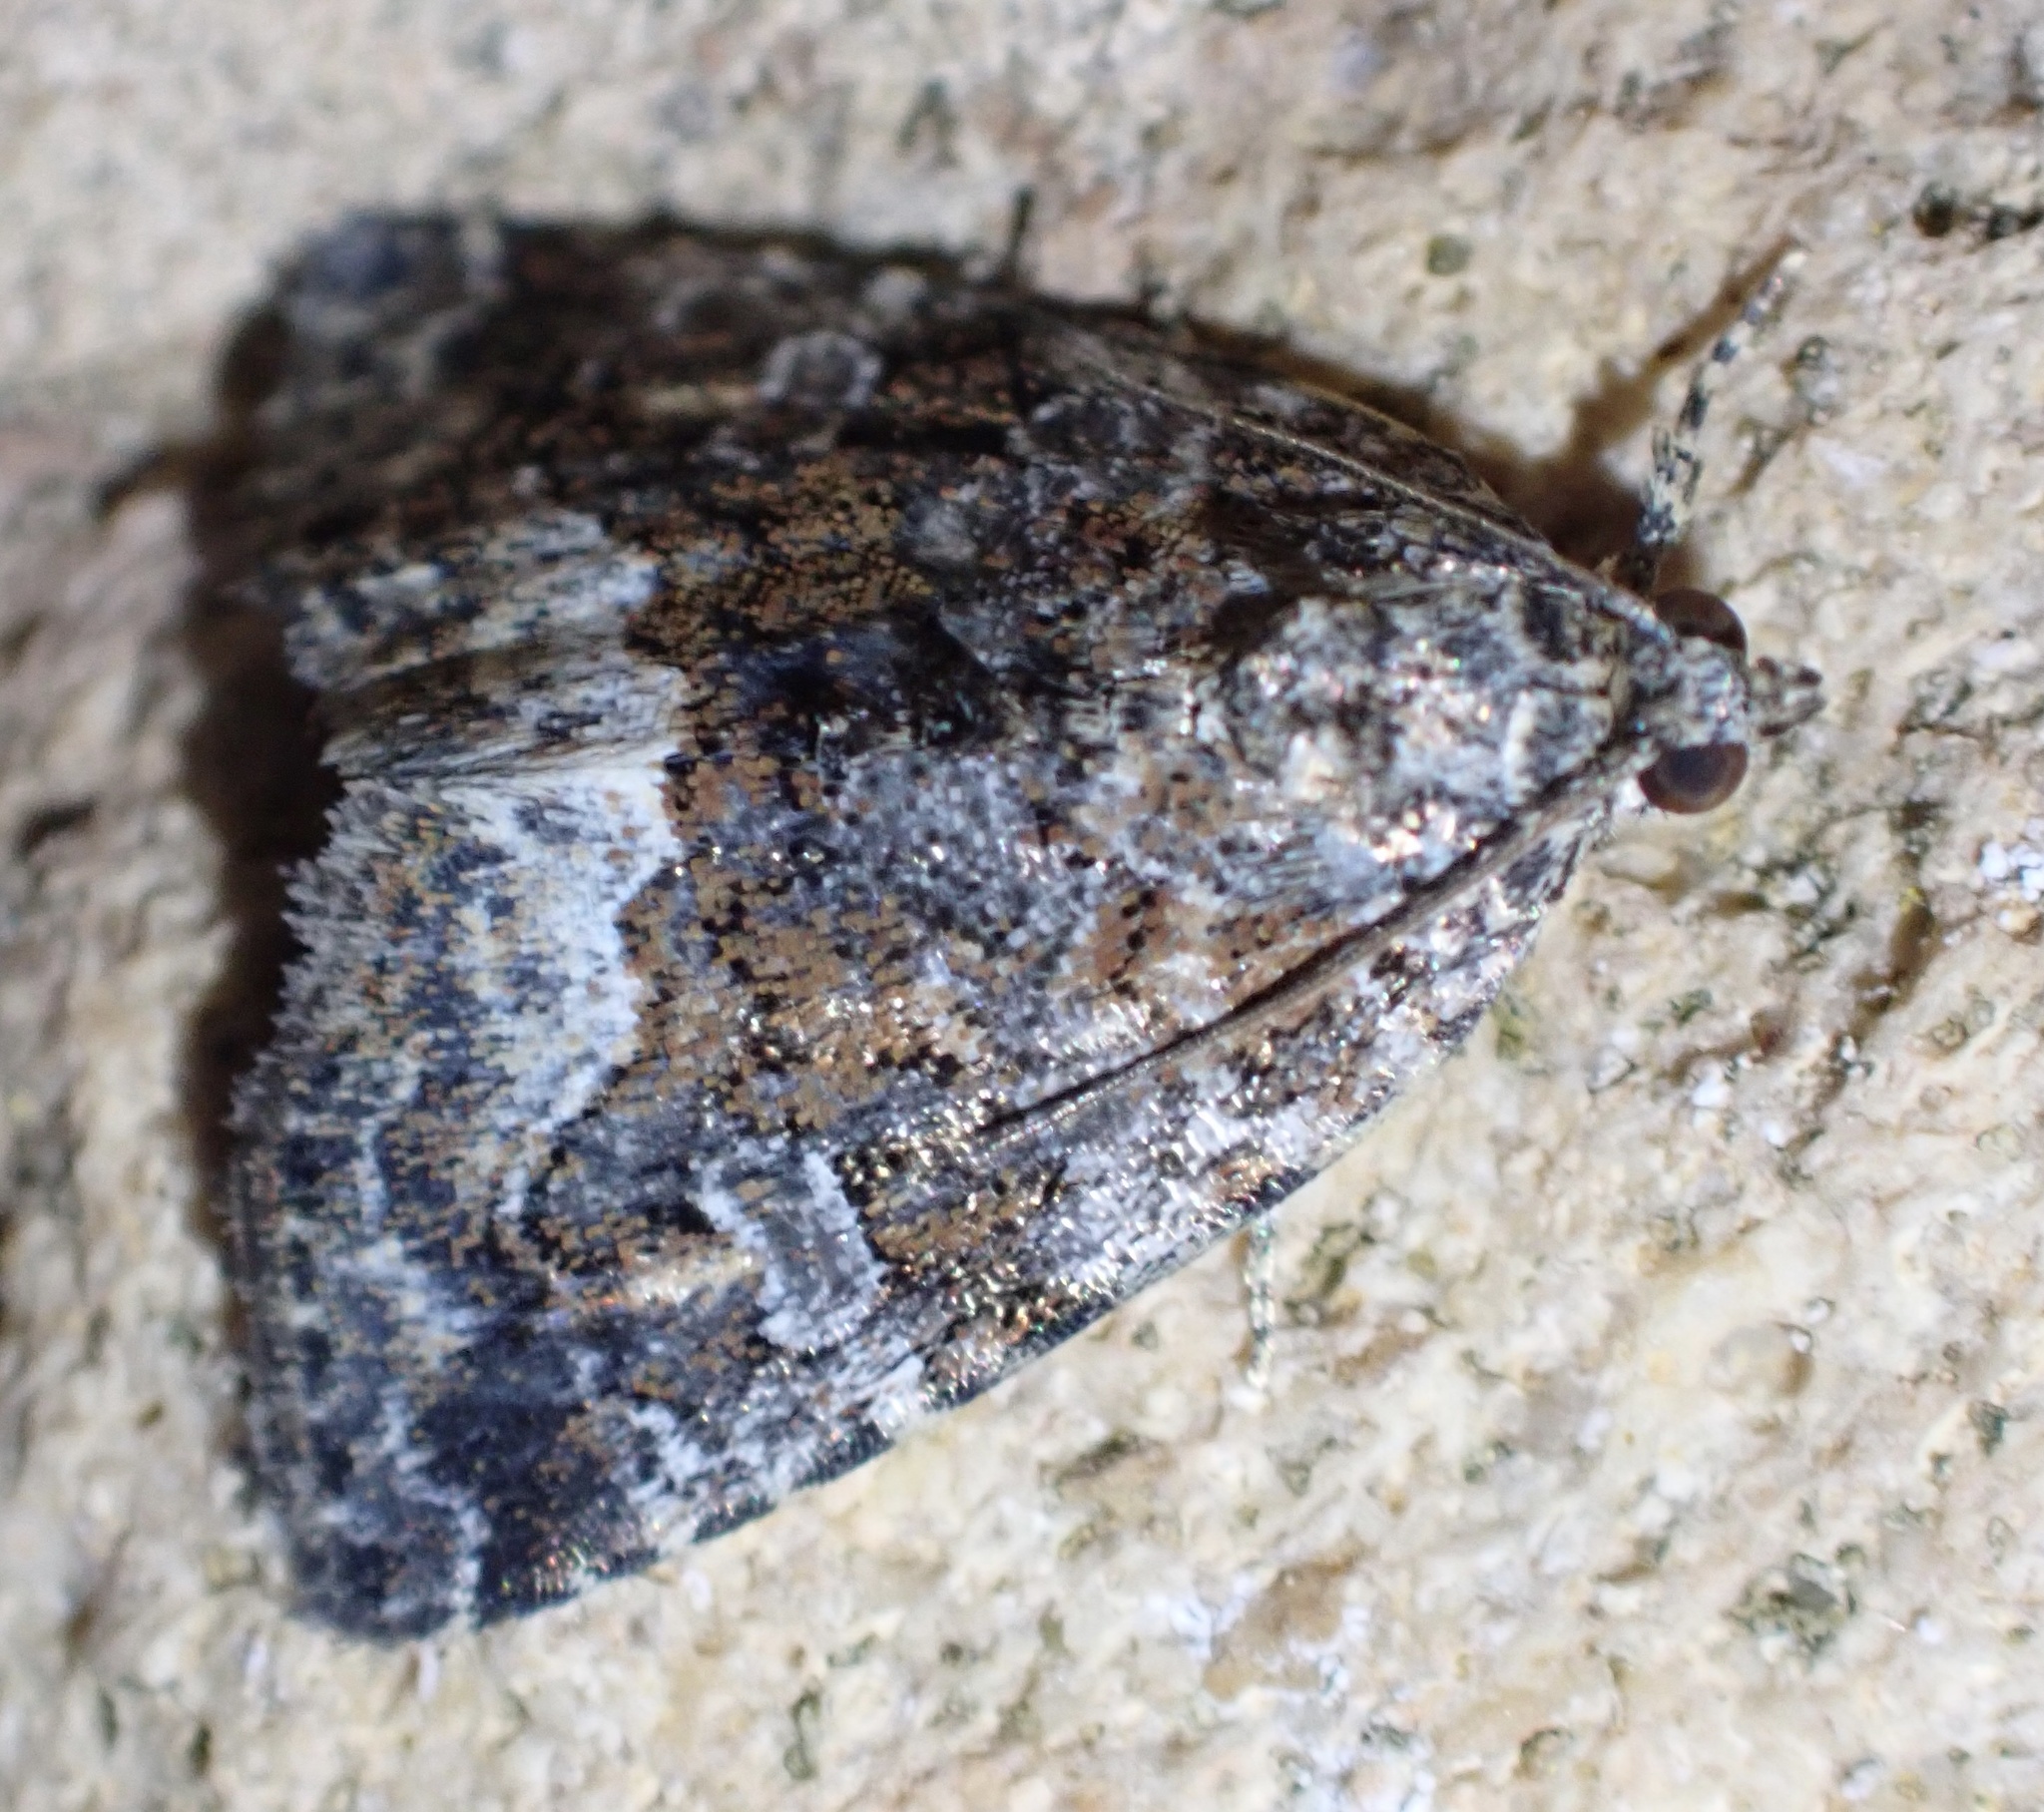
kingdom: Animalia
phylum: Arthropoda
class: Insecta
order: Lepidoptera
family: Noctuidae
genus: Deltote
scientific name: Deltote pygarga
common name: Marbled white spot
